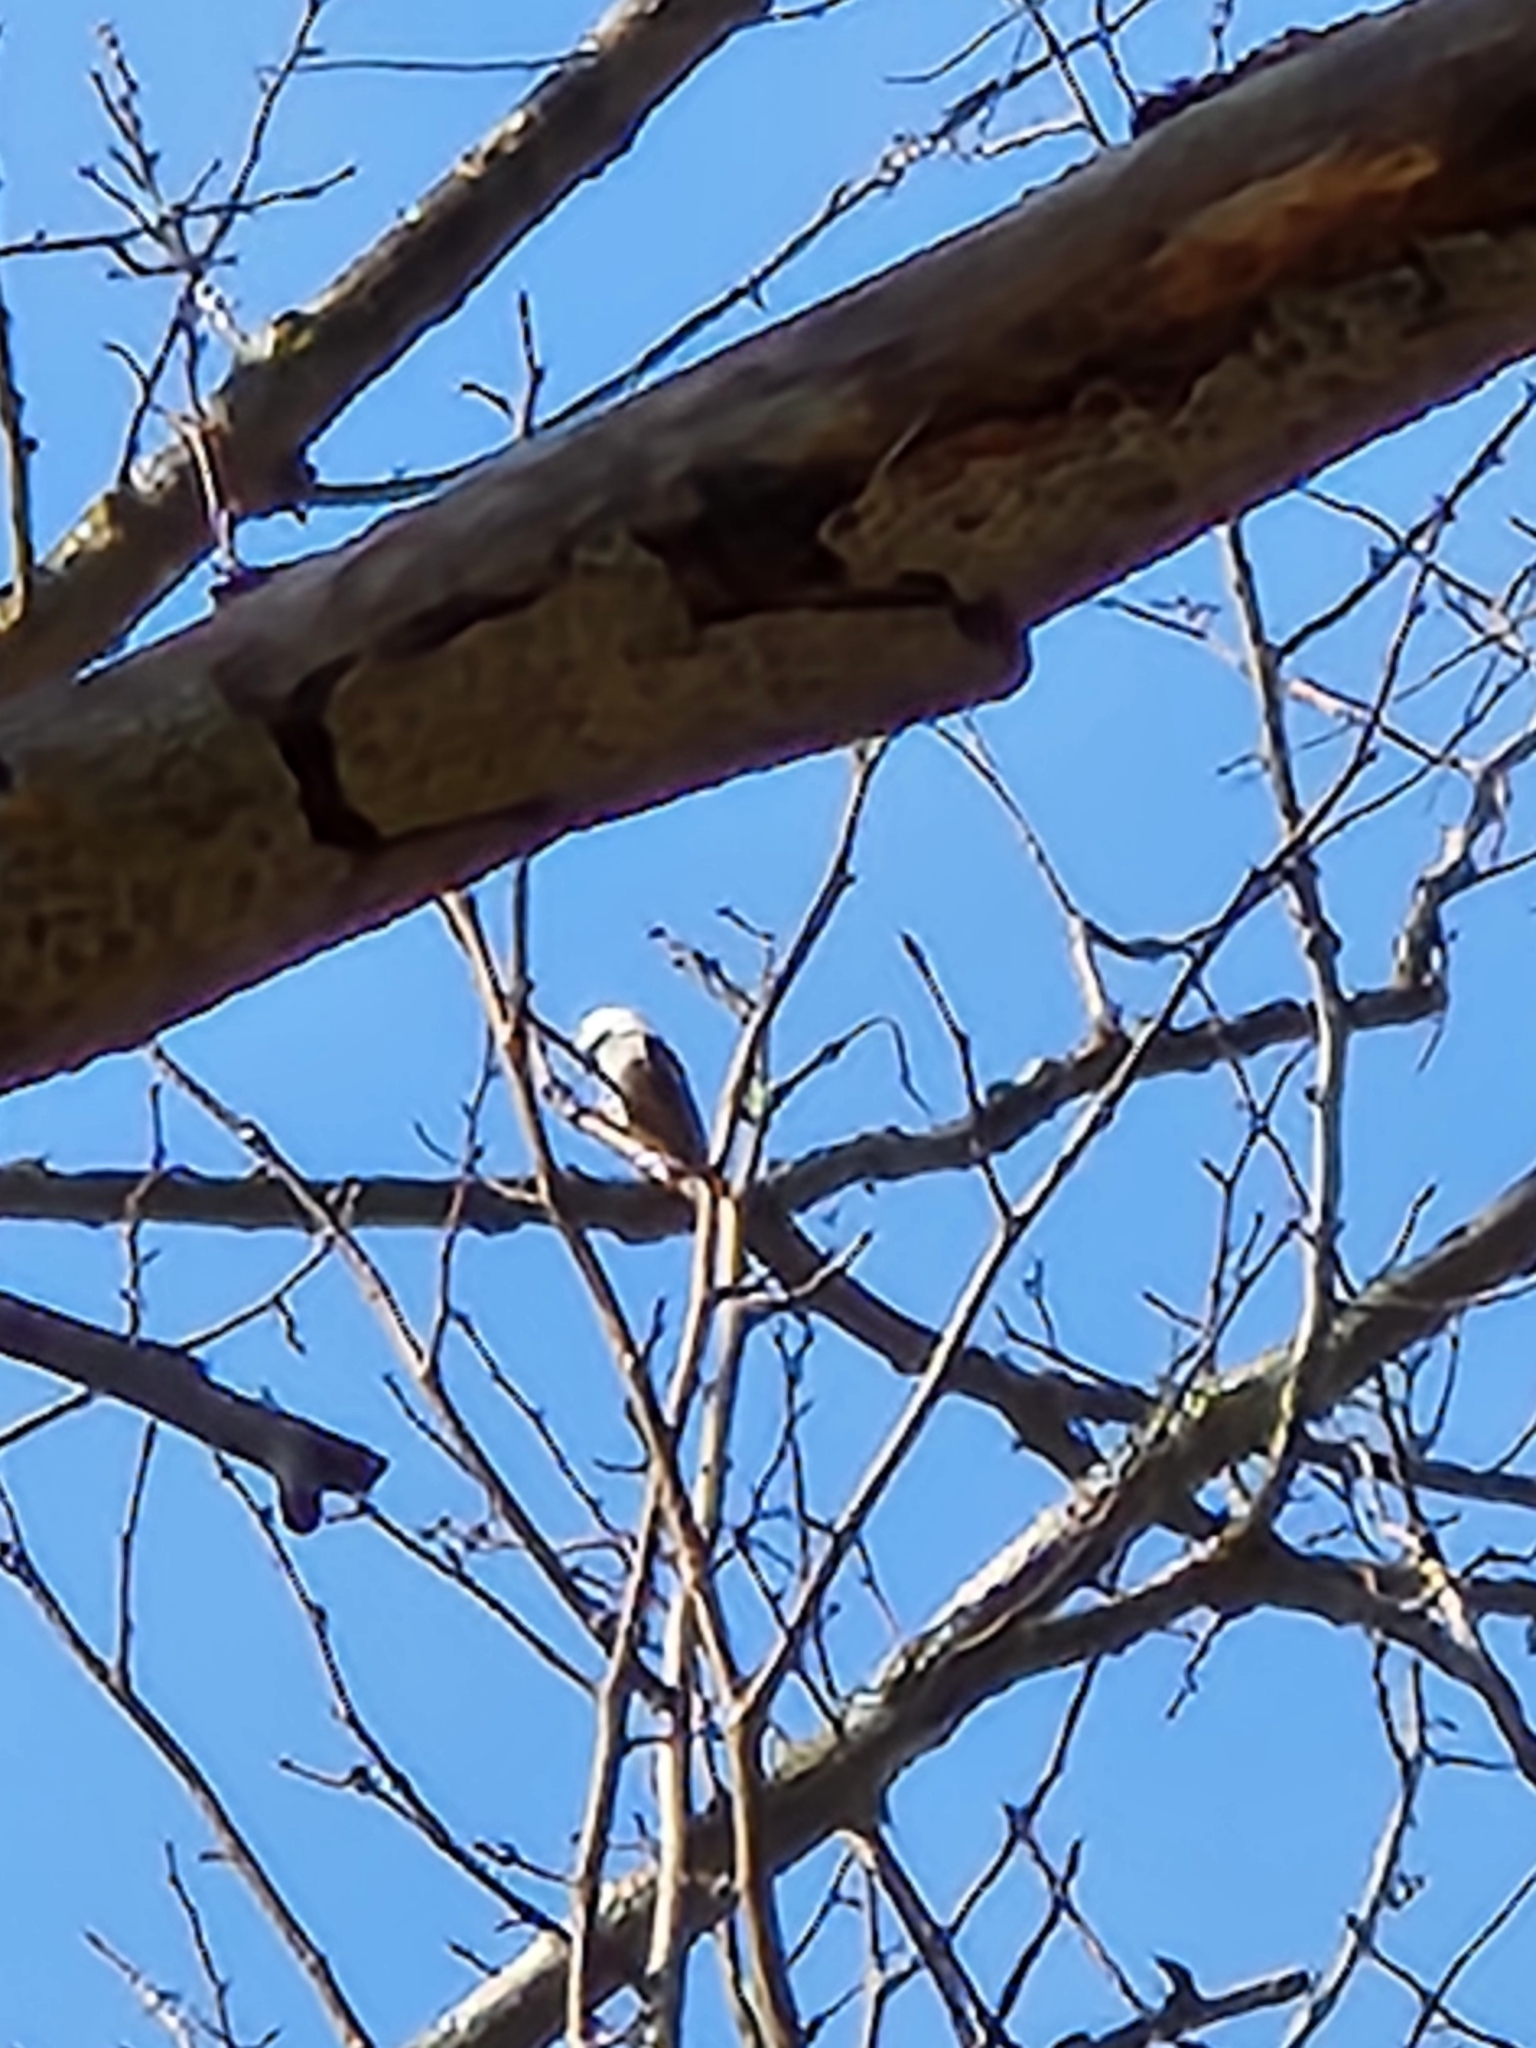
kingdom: Animalia
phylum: Chordata
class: Aves
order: Passeriformes
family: Paridae
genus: Poecile
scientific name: Poecile atricapillus
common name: Black-capped chickadee
